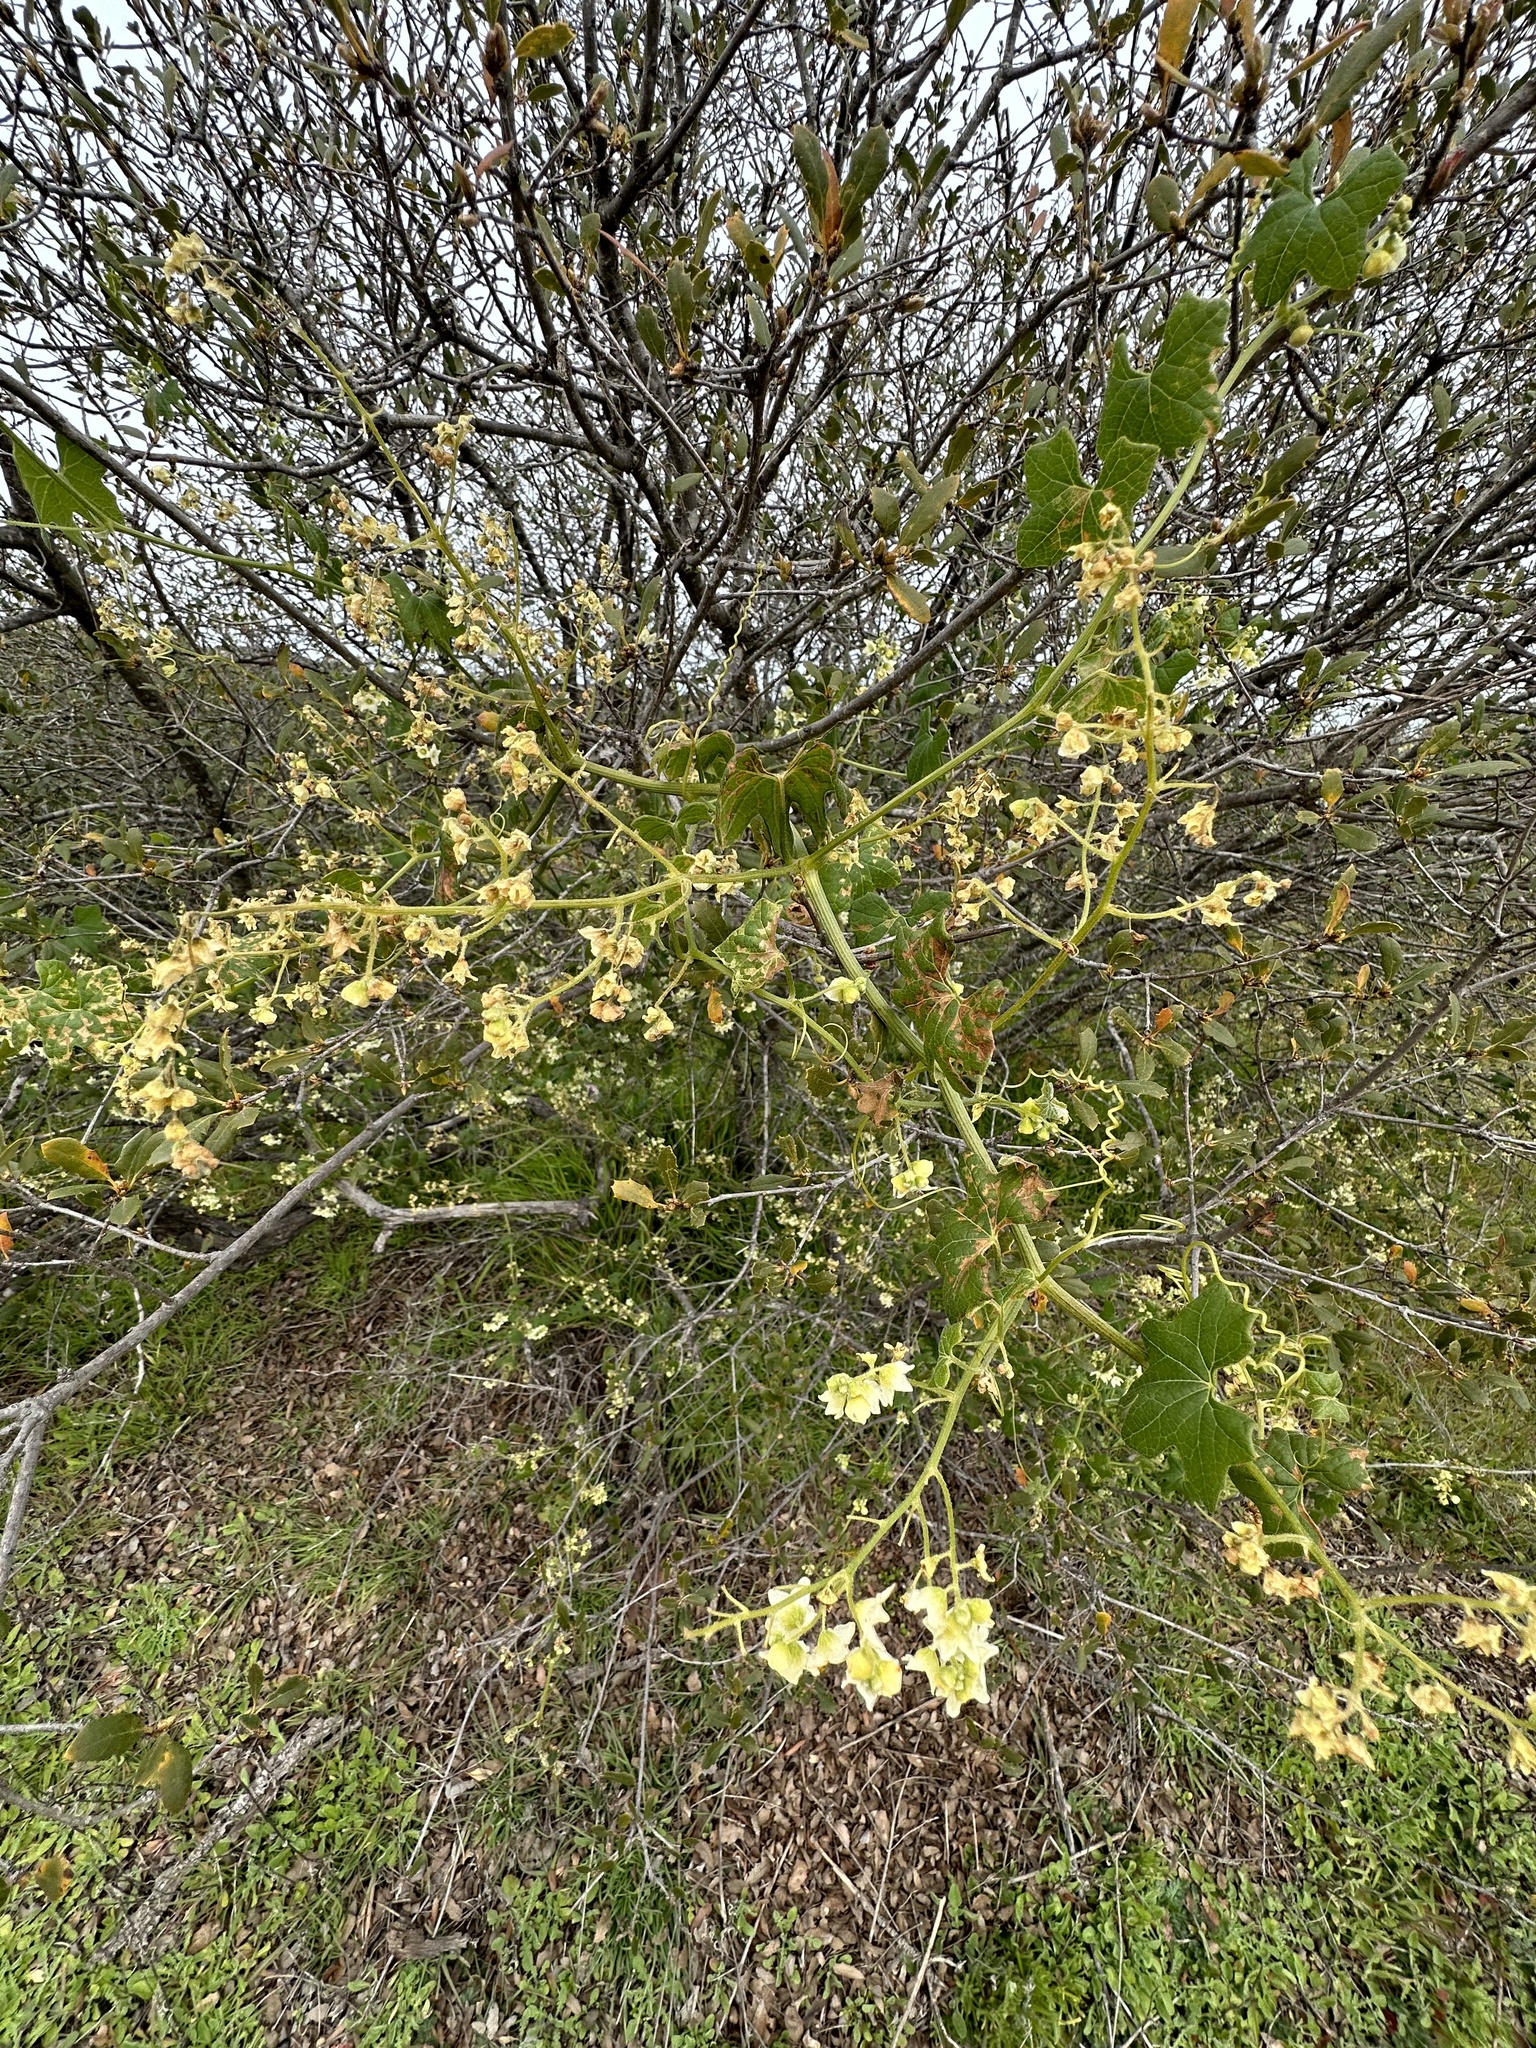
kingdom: Plantae
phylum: Tracheophyta
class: Magnoliopsida
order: Cucurbitales
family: Cucurbitaceae
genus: Marah
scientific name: Marah macrocarpa
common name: Cucamonga manroot
